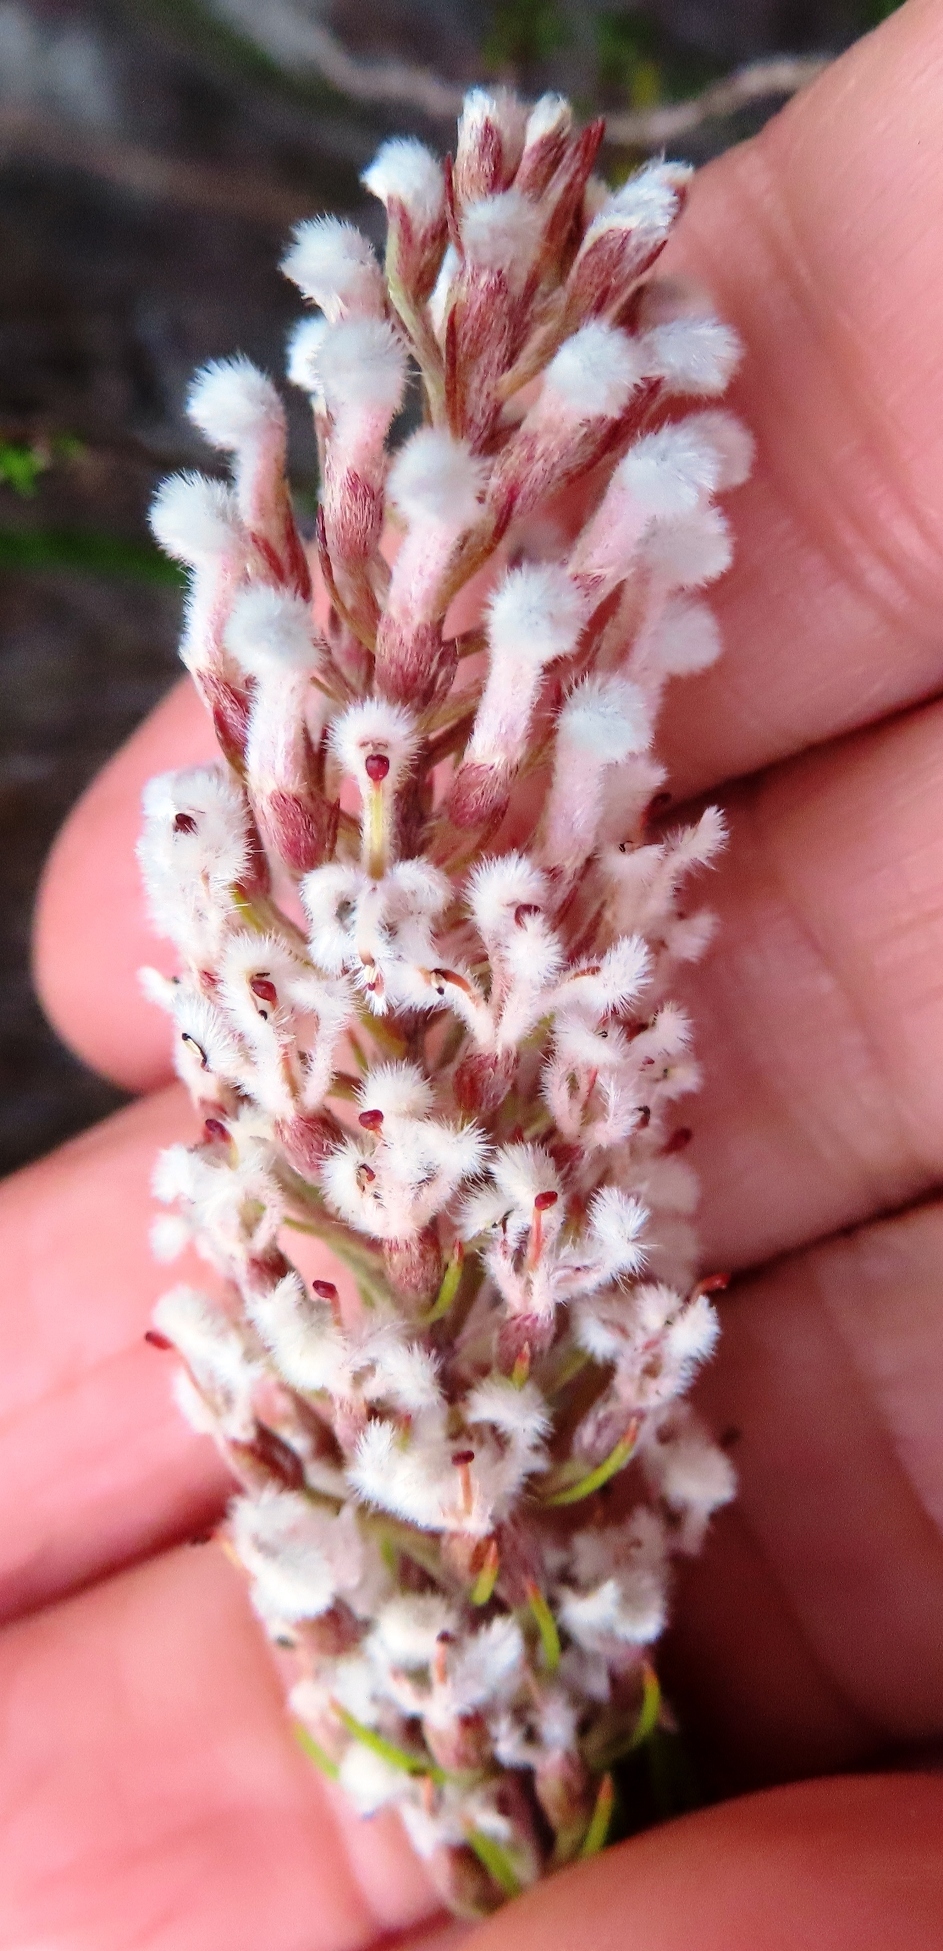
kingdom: Plantae
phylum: Tracheophyta
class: Magnoliopsida
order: Proteales
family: Proteaceae
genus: Spatalla
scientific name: Spatalla curvifolia
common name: White-stalked spoon
